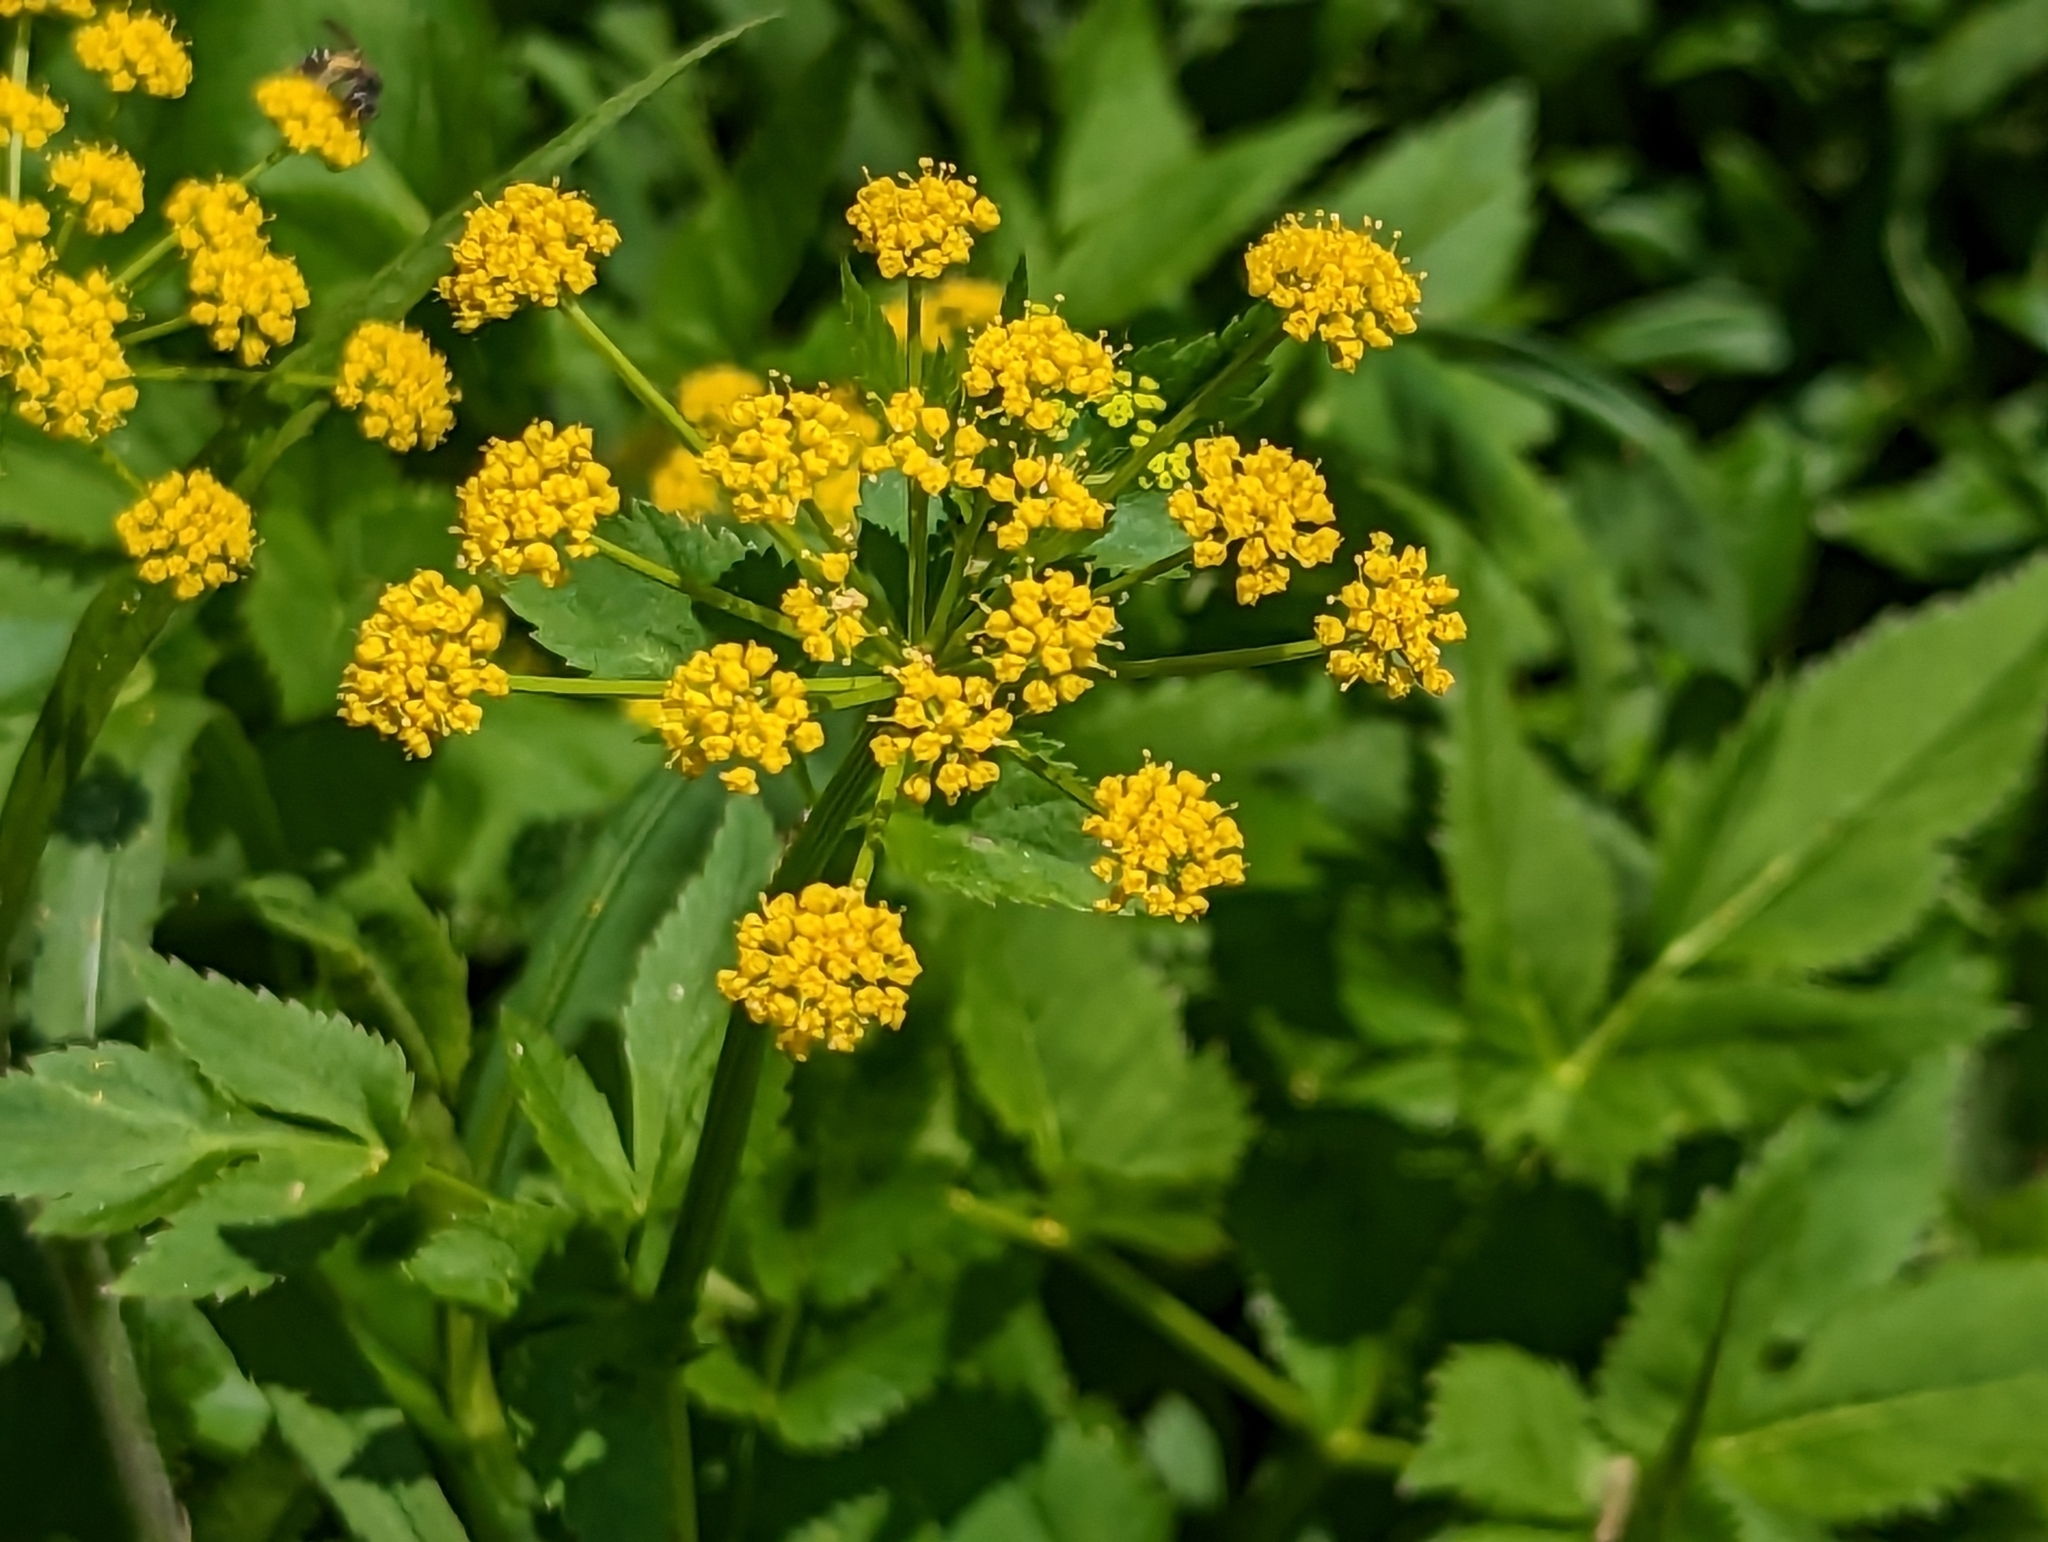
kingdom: Plantae
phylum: Tracheophyta
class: Magnoliopsida
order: Apiales
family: Apiaceae
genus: Zizia
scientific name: Zizia aurea
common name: Golden alexanders
